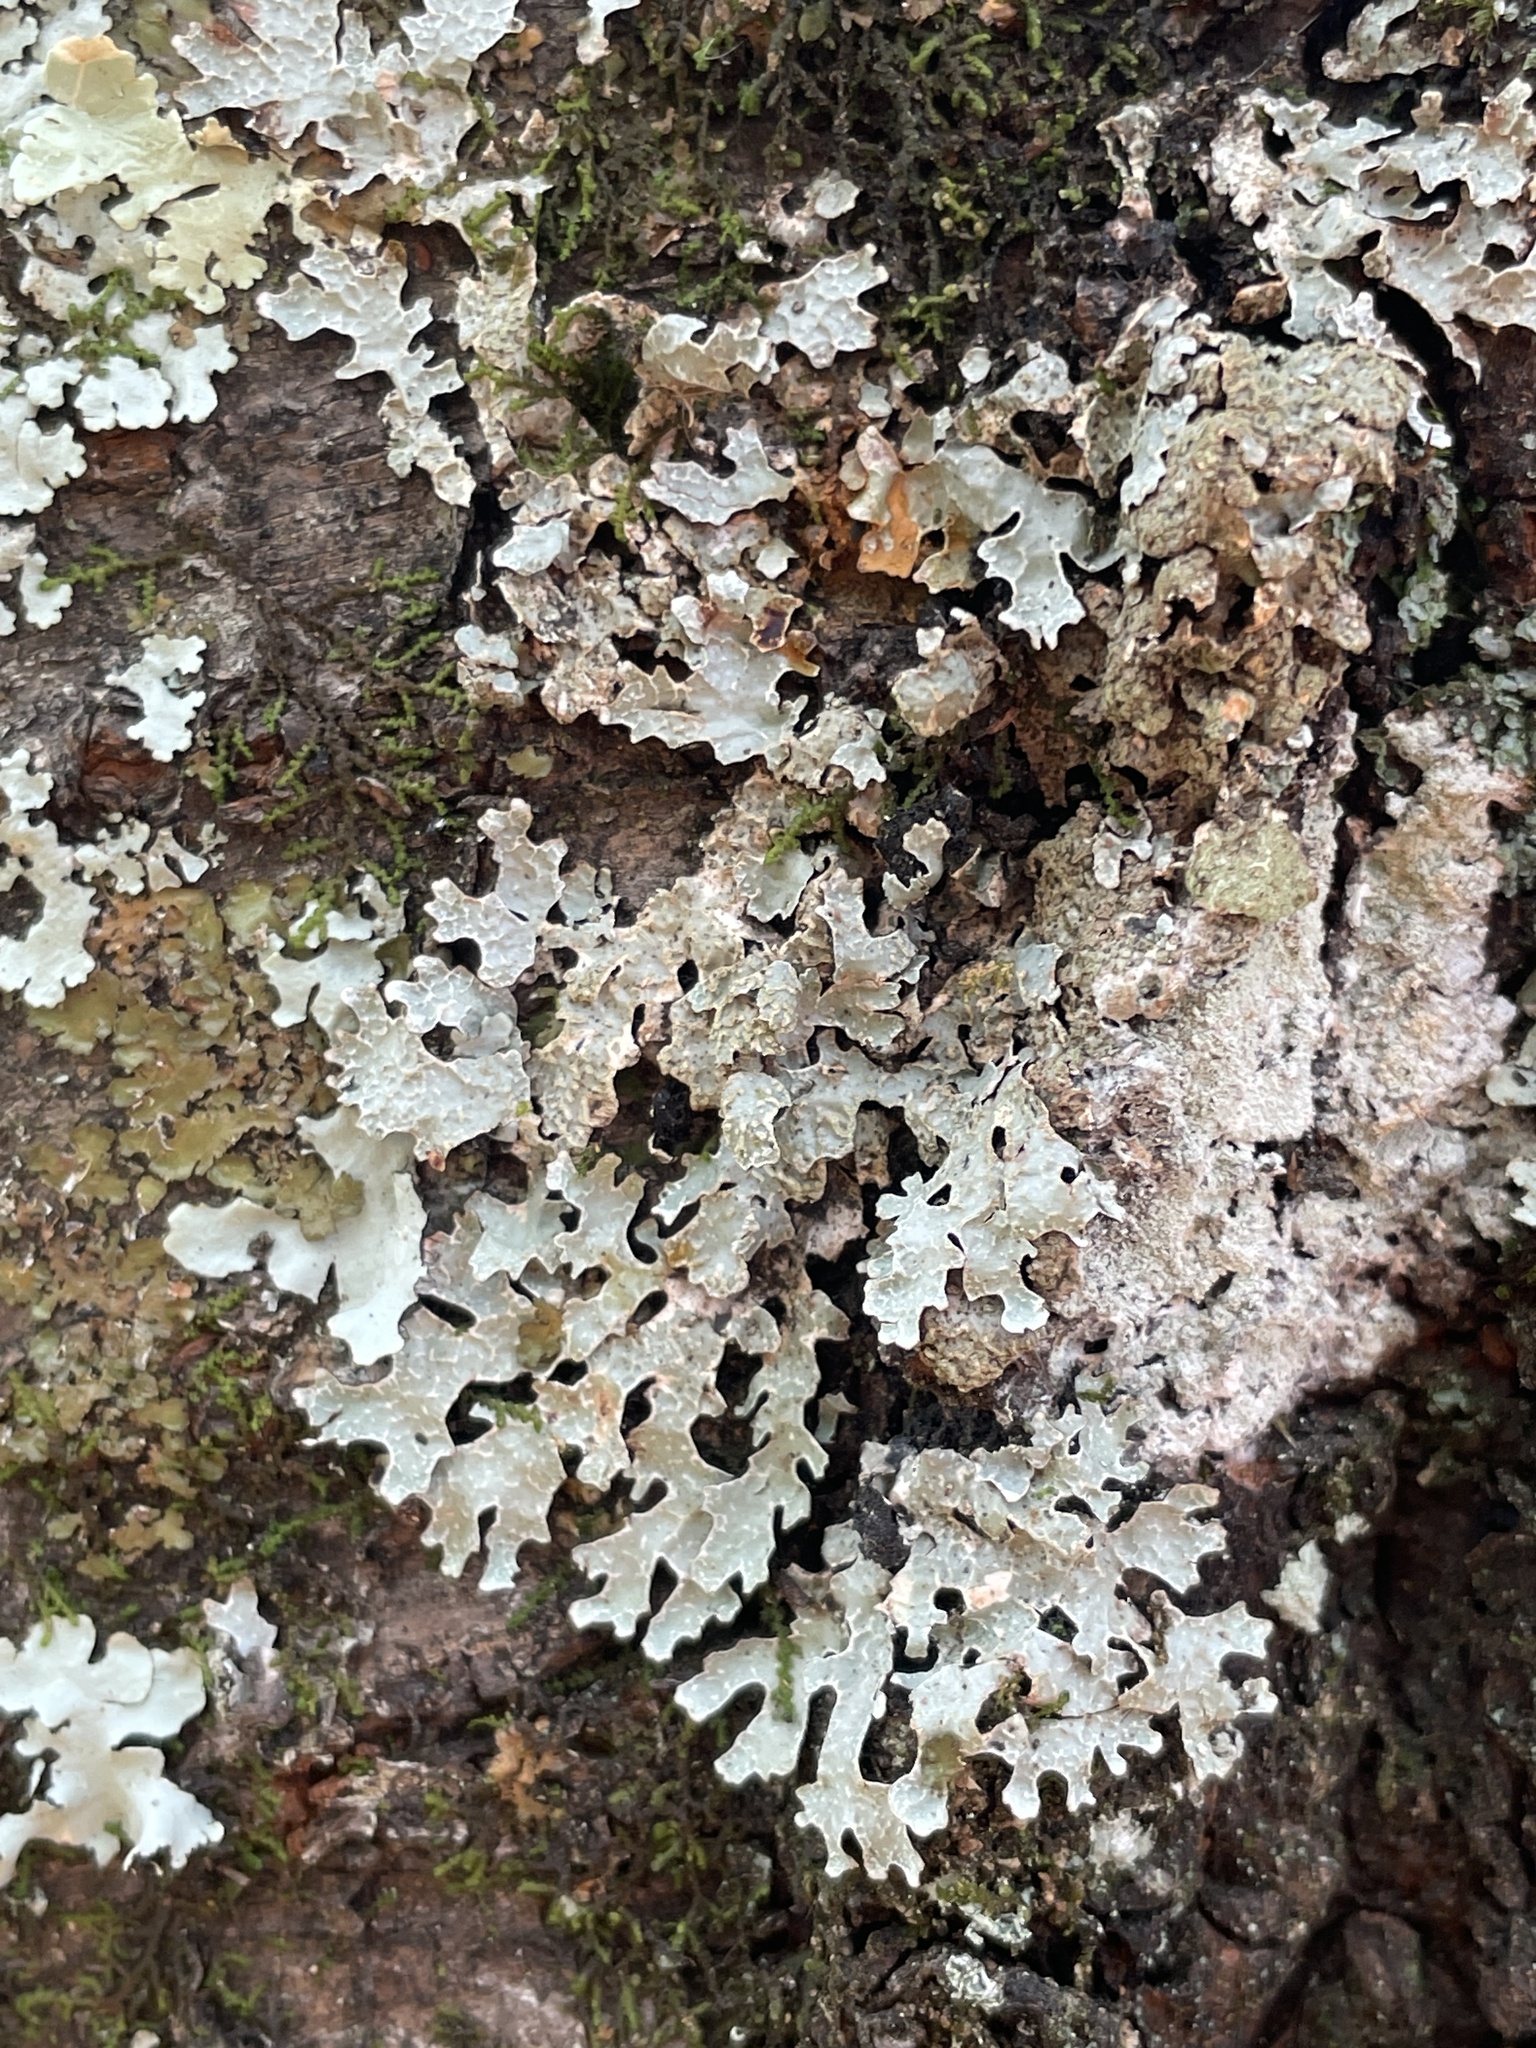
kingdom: Fungi
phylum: Ascomycota
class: Lecanoromycetes
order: Lecanorales
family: Parmeliaceae
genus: Parmelia
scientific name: Parmelia sulcata
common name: Netted shield lichen
